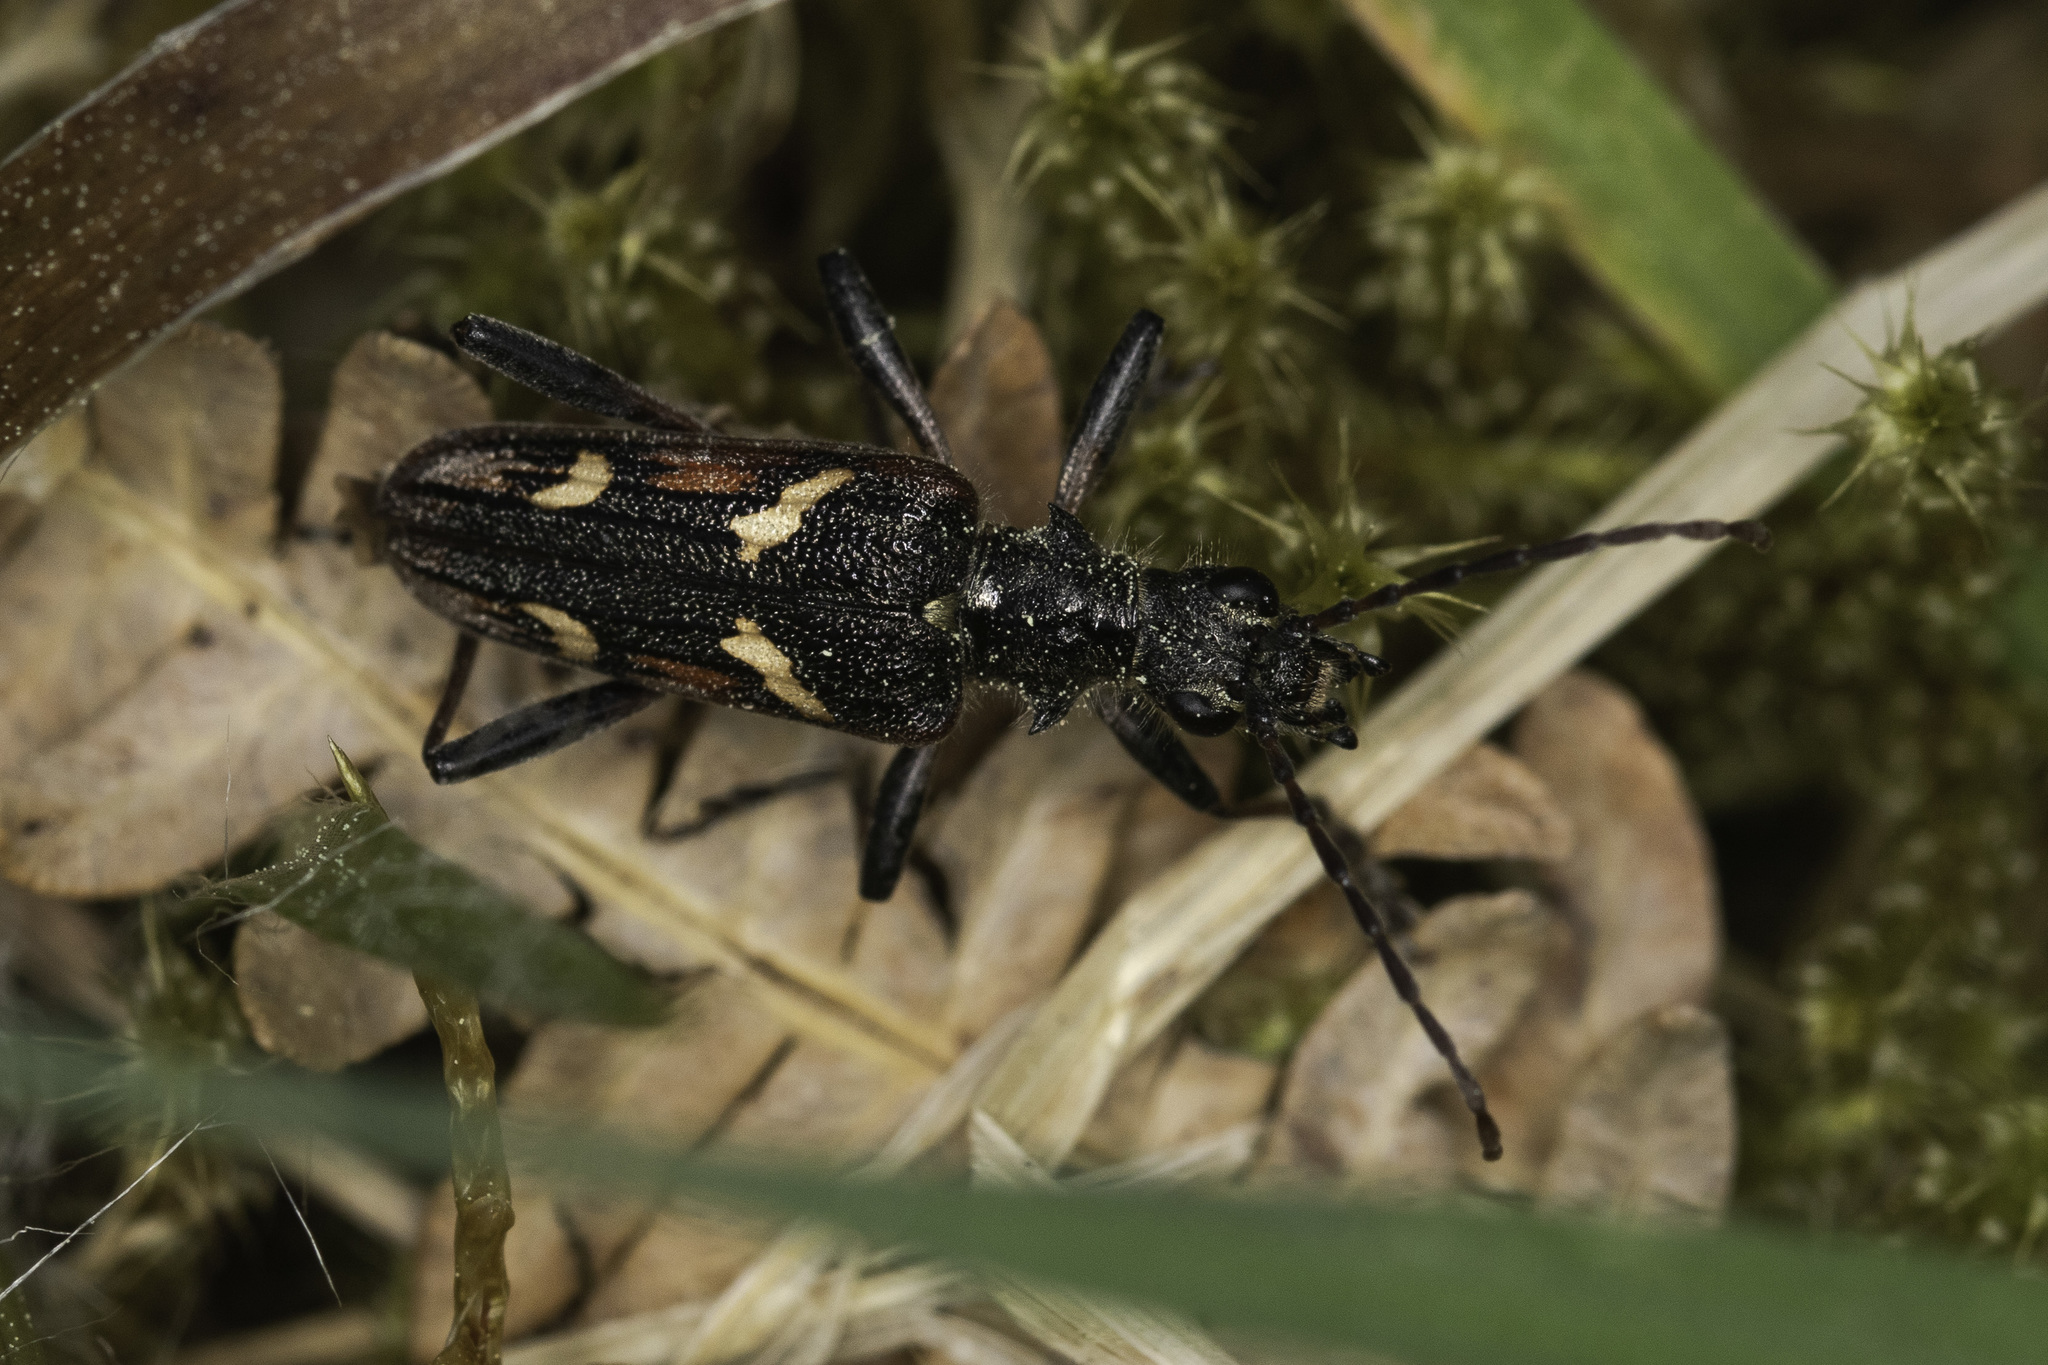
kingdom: Animalia
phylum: Arthropoda
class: Insecta
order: Coleoptera
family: Cerambycidae
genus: Rhagium
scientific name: Rhagium bifasciatum
